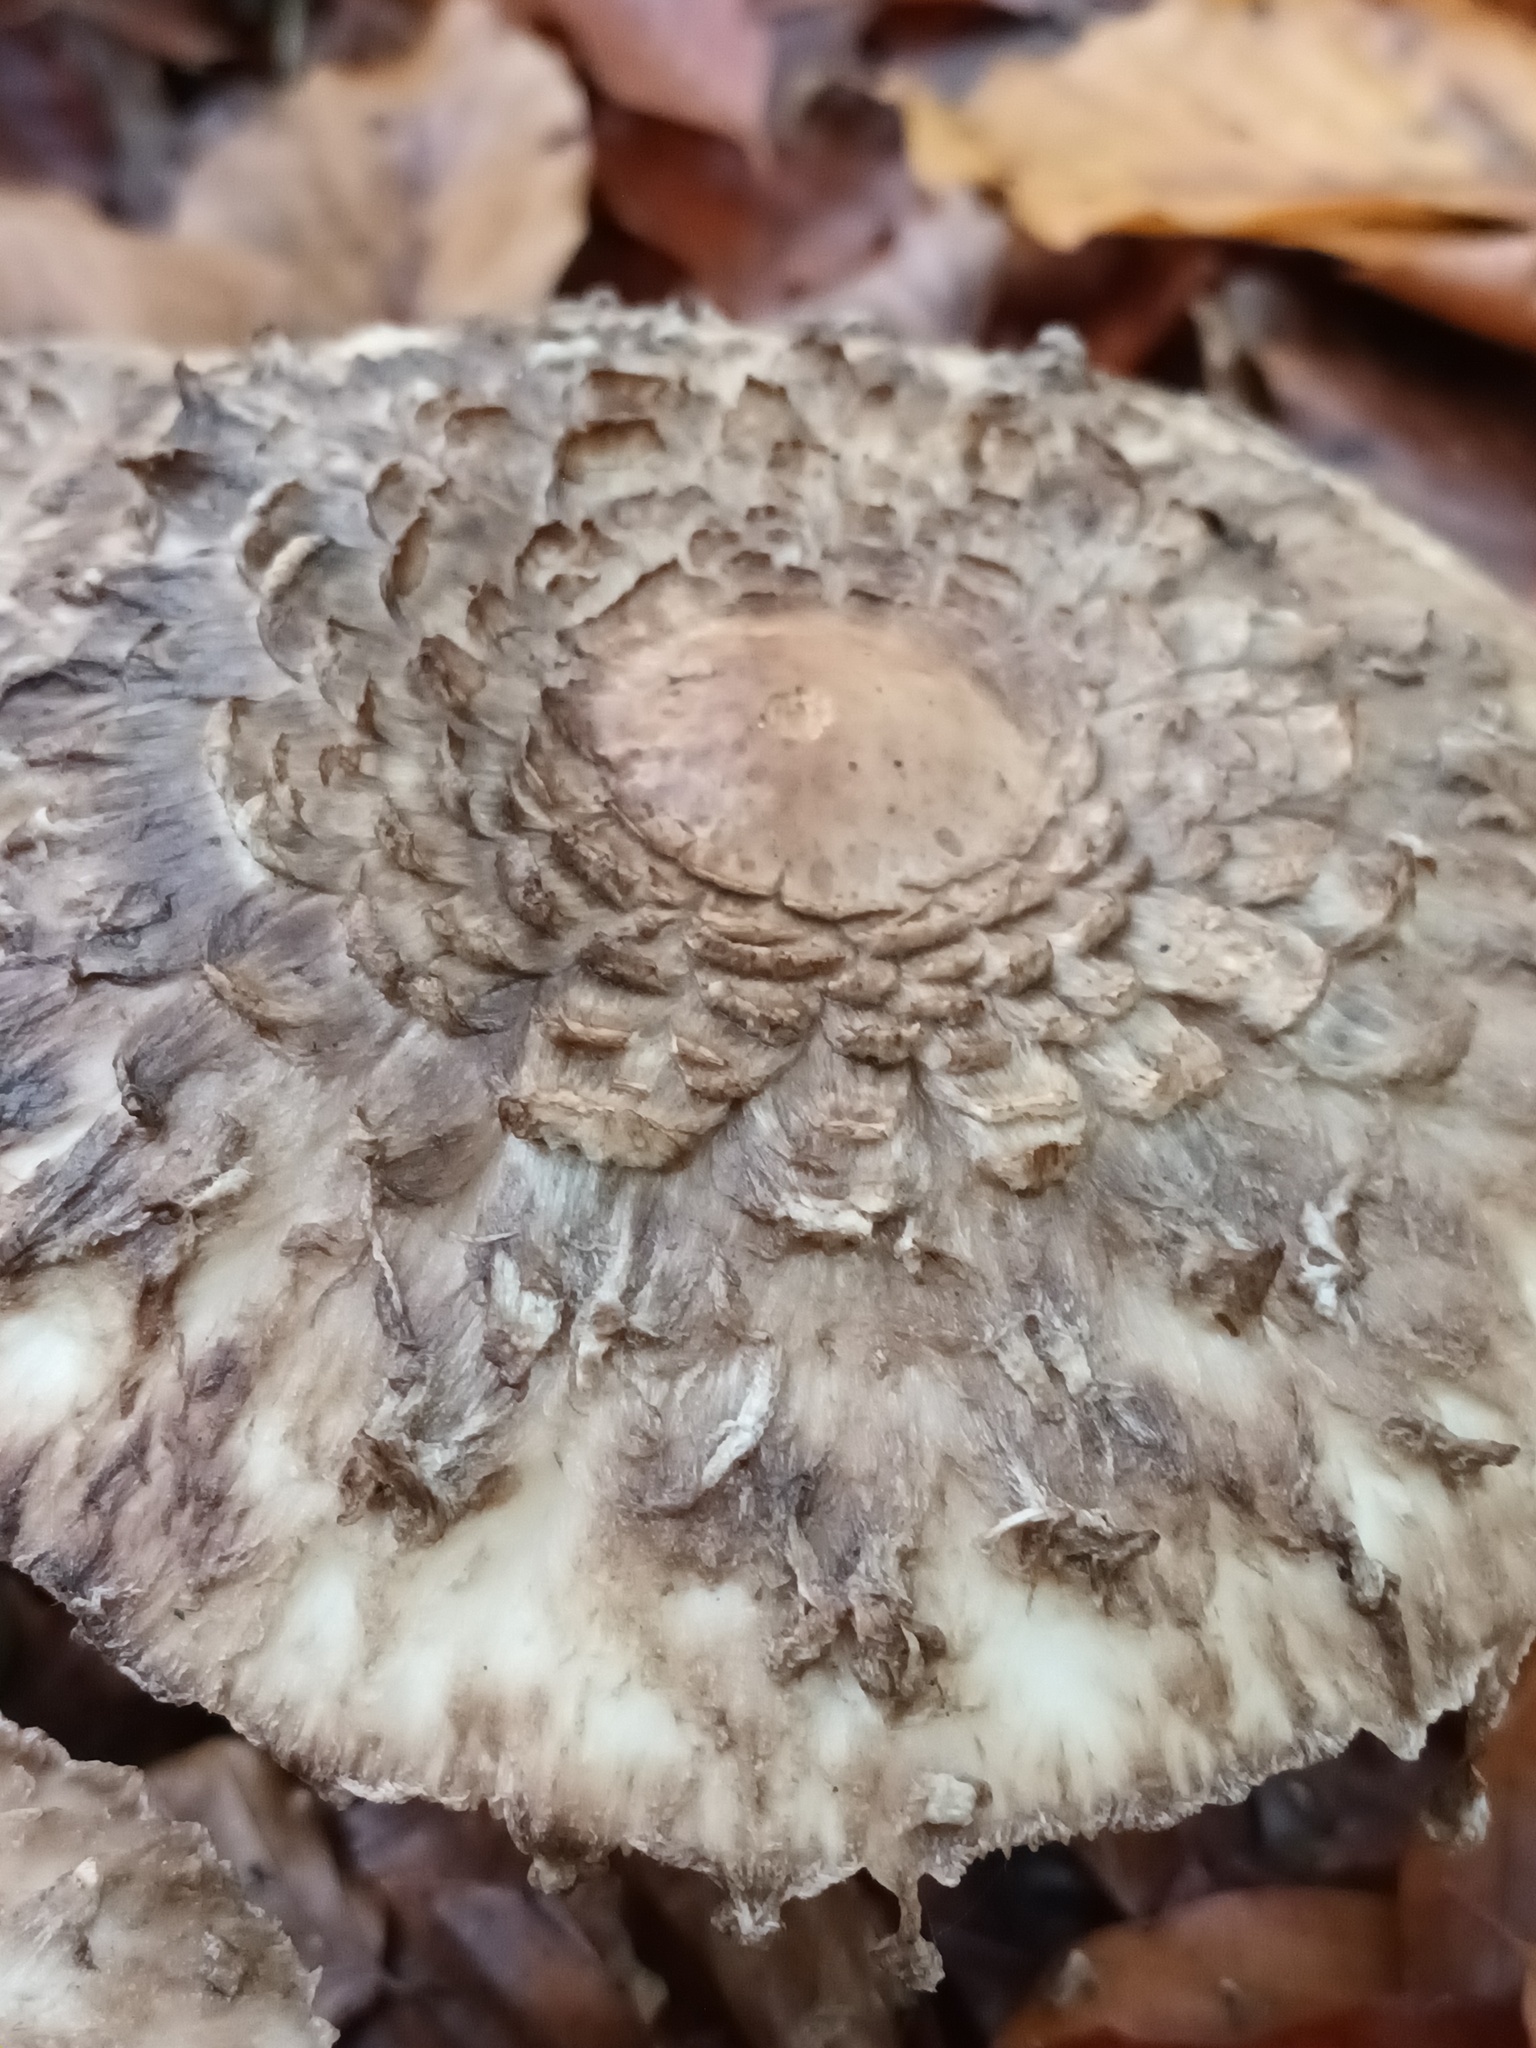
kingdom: Fungi
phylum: Basidiomycota
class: Agaricomycetes
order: Agaricales
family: Agaricaceae
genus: Chlorophyllum
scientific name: Chlorophyllum olivieri
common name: Conifer parasol
